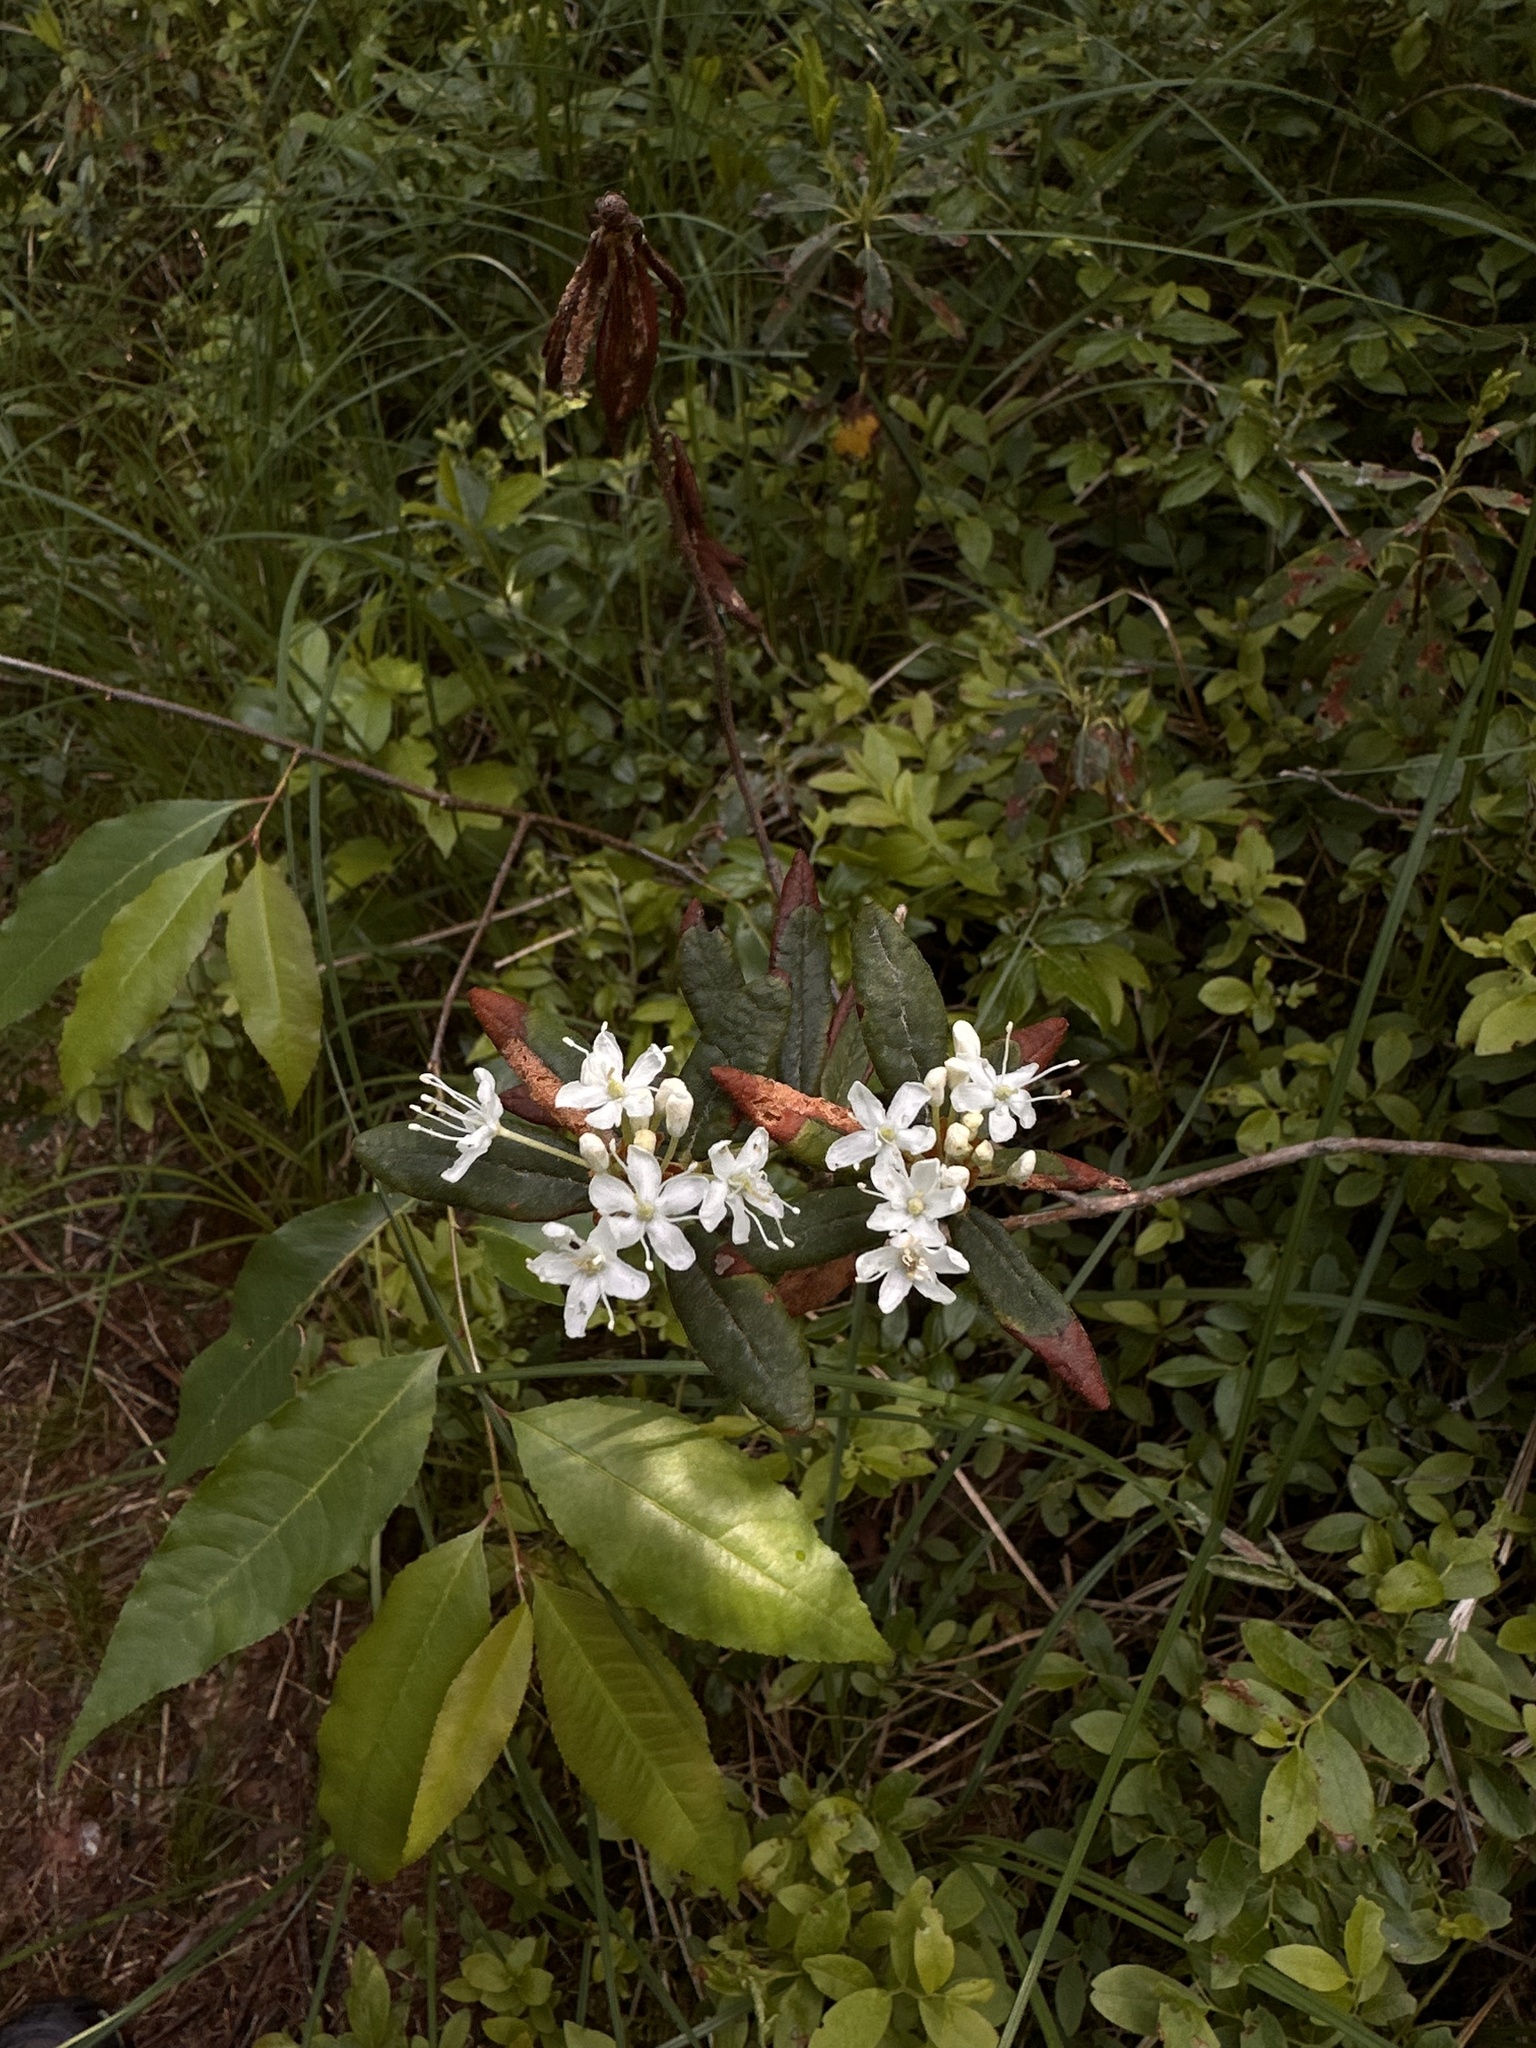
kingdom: Plantae
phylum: Tracheophyta
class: Magnoliopsida
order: Ericales
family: Ericaceae
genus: Rhododendron
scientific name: Rhododendron groenlandicum
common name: Bog labrador tea
